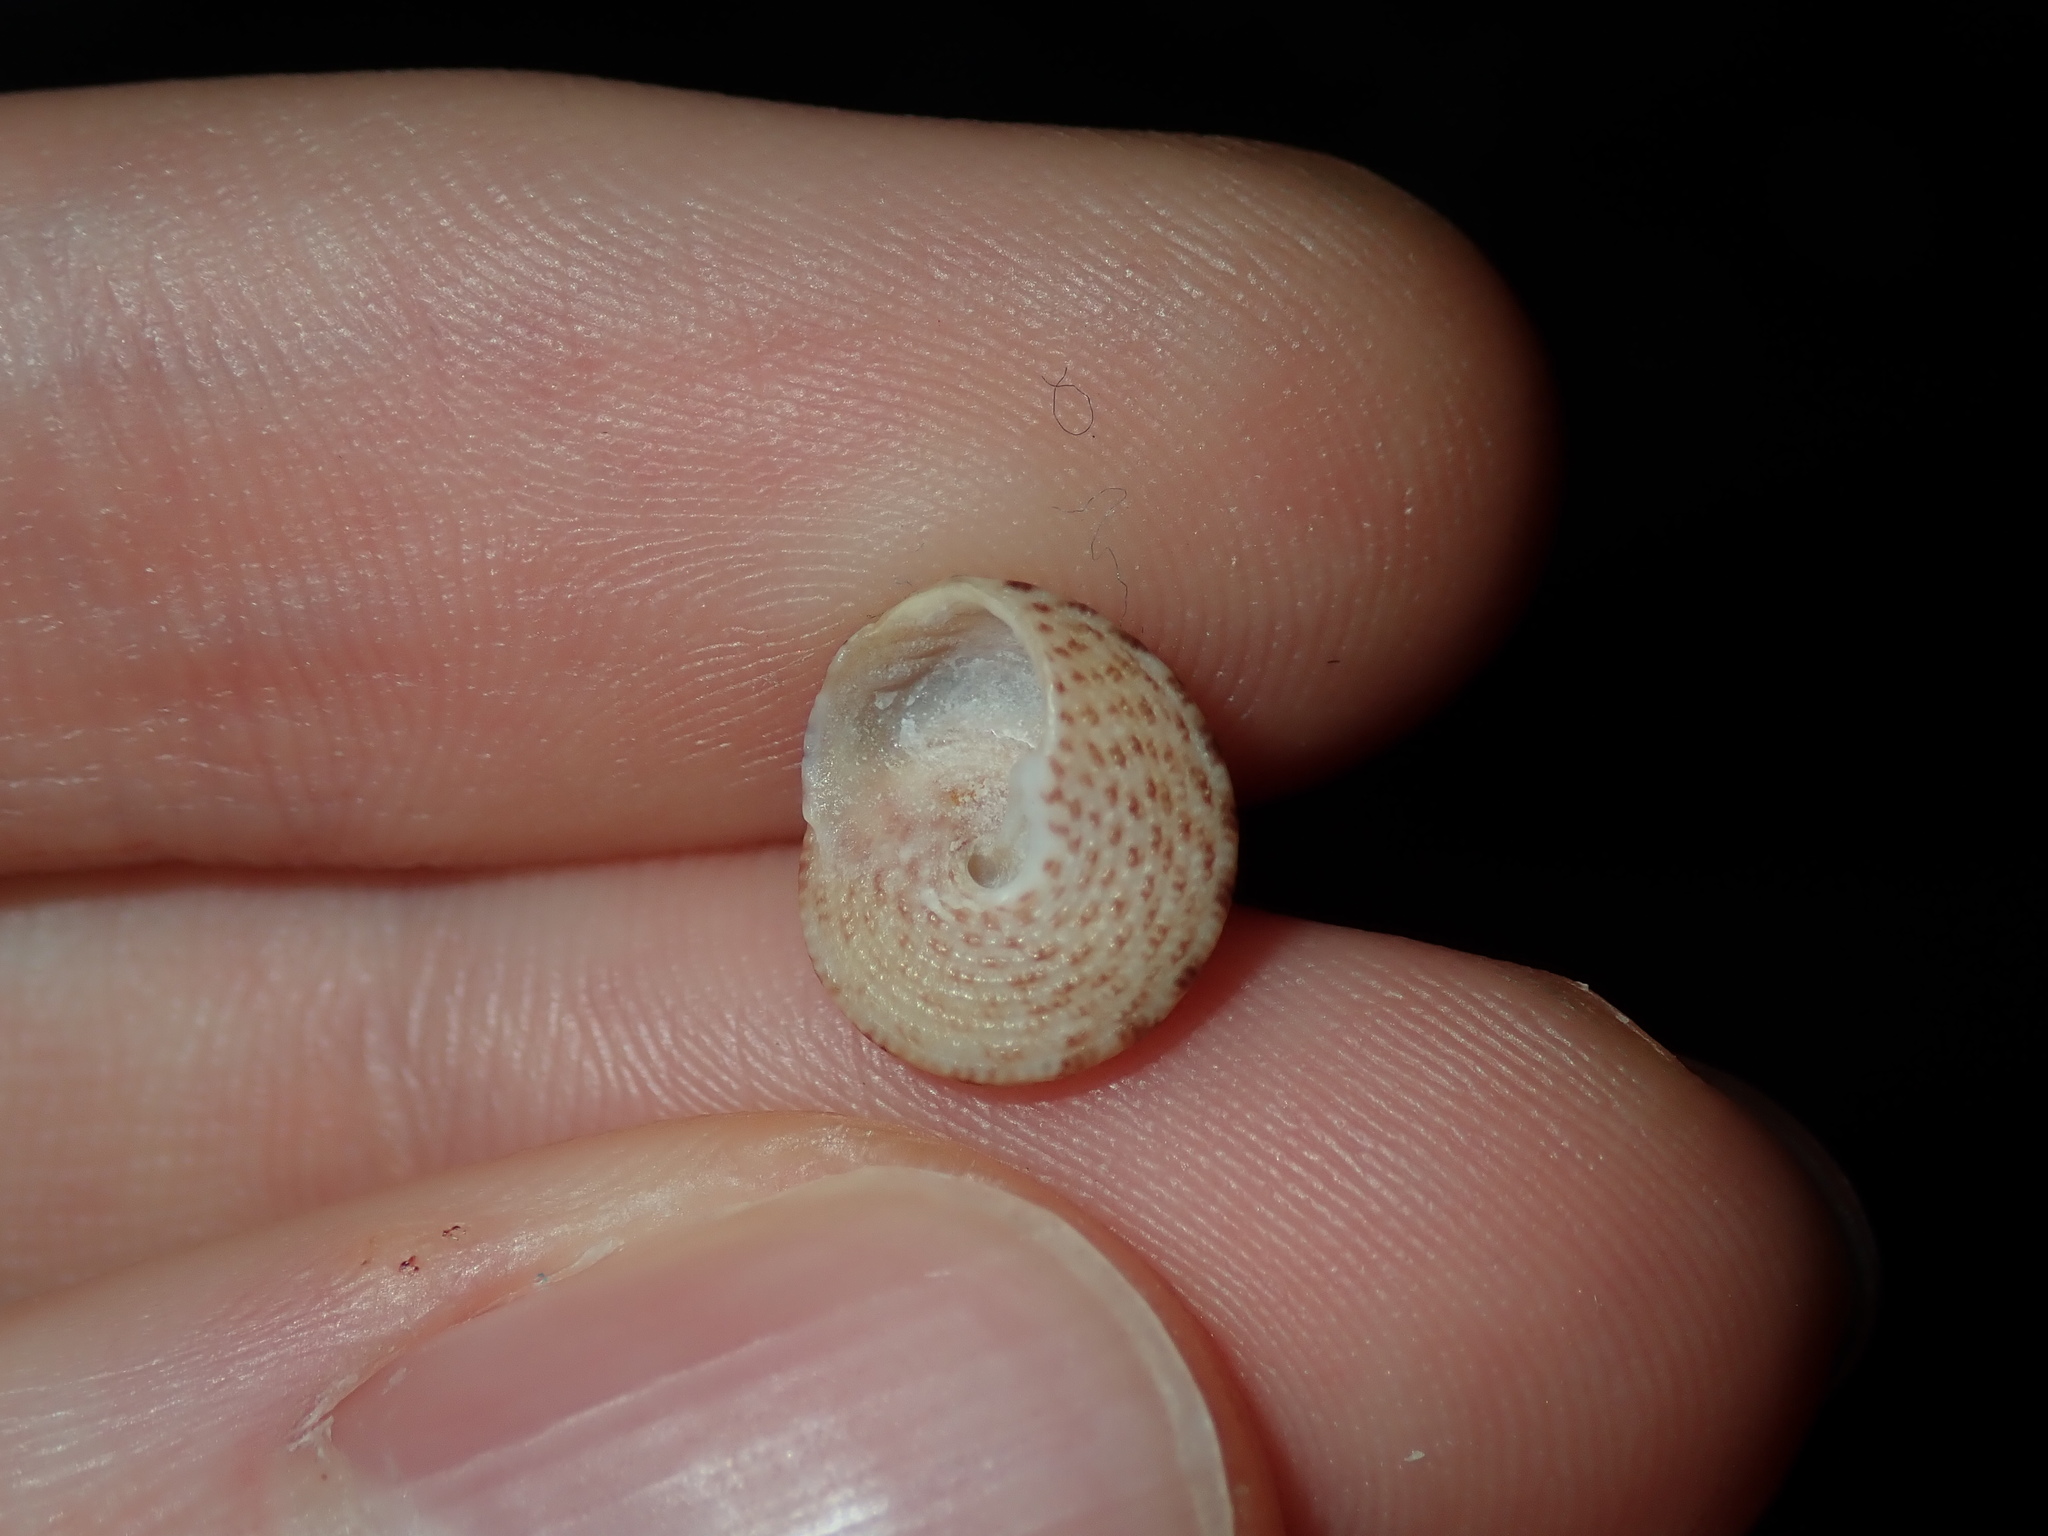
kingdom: Animalia
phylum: Mollusca
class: Gastropoda
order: Trochida
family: Trochidae
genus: Clanculus
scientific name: Clanculus undatoides
